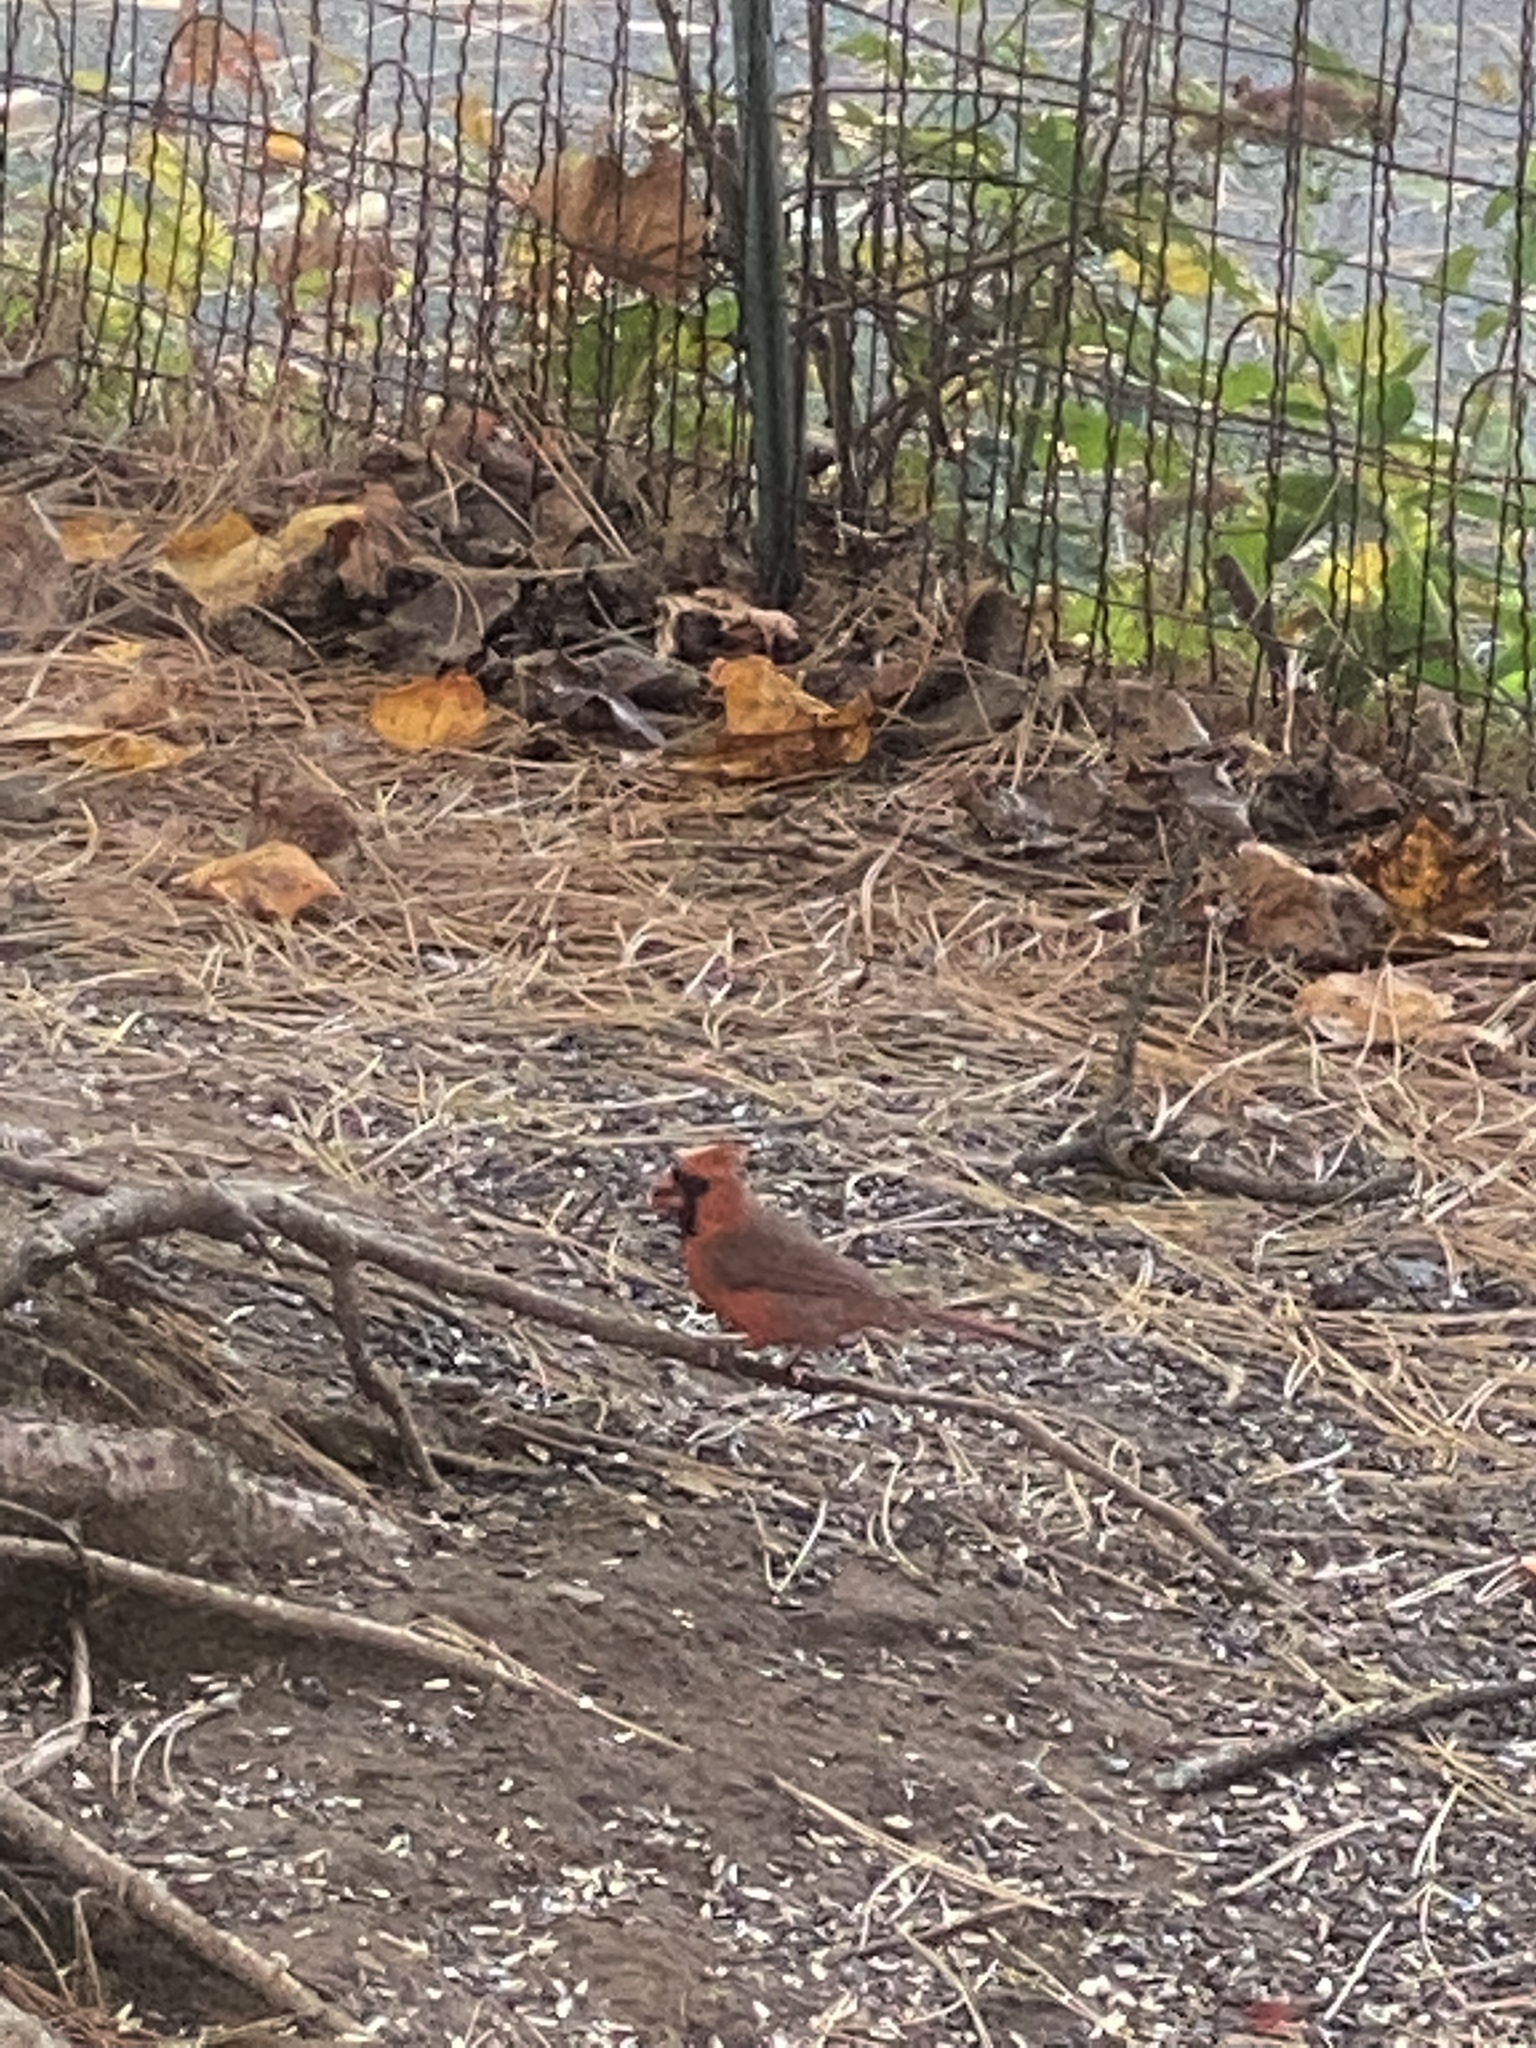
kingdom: Animalia
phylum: Chordata
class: Aves
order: Passeriformes
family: Cardinalidae
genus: Cardinalis
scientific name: Cardinalis cardinalis
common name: Northern cardinal
